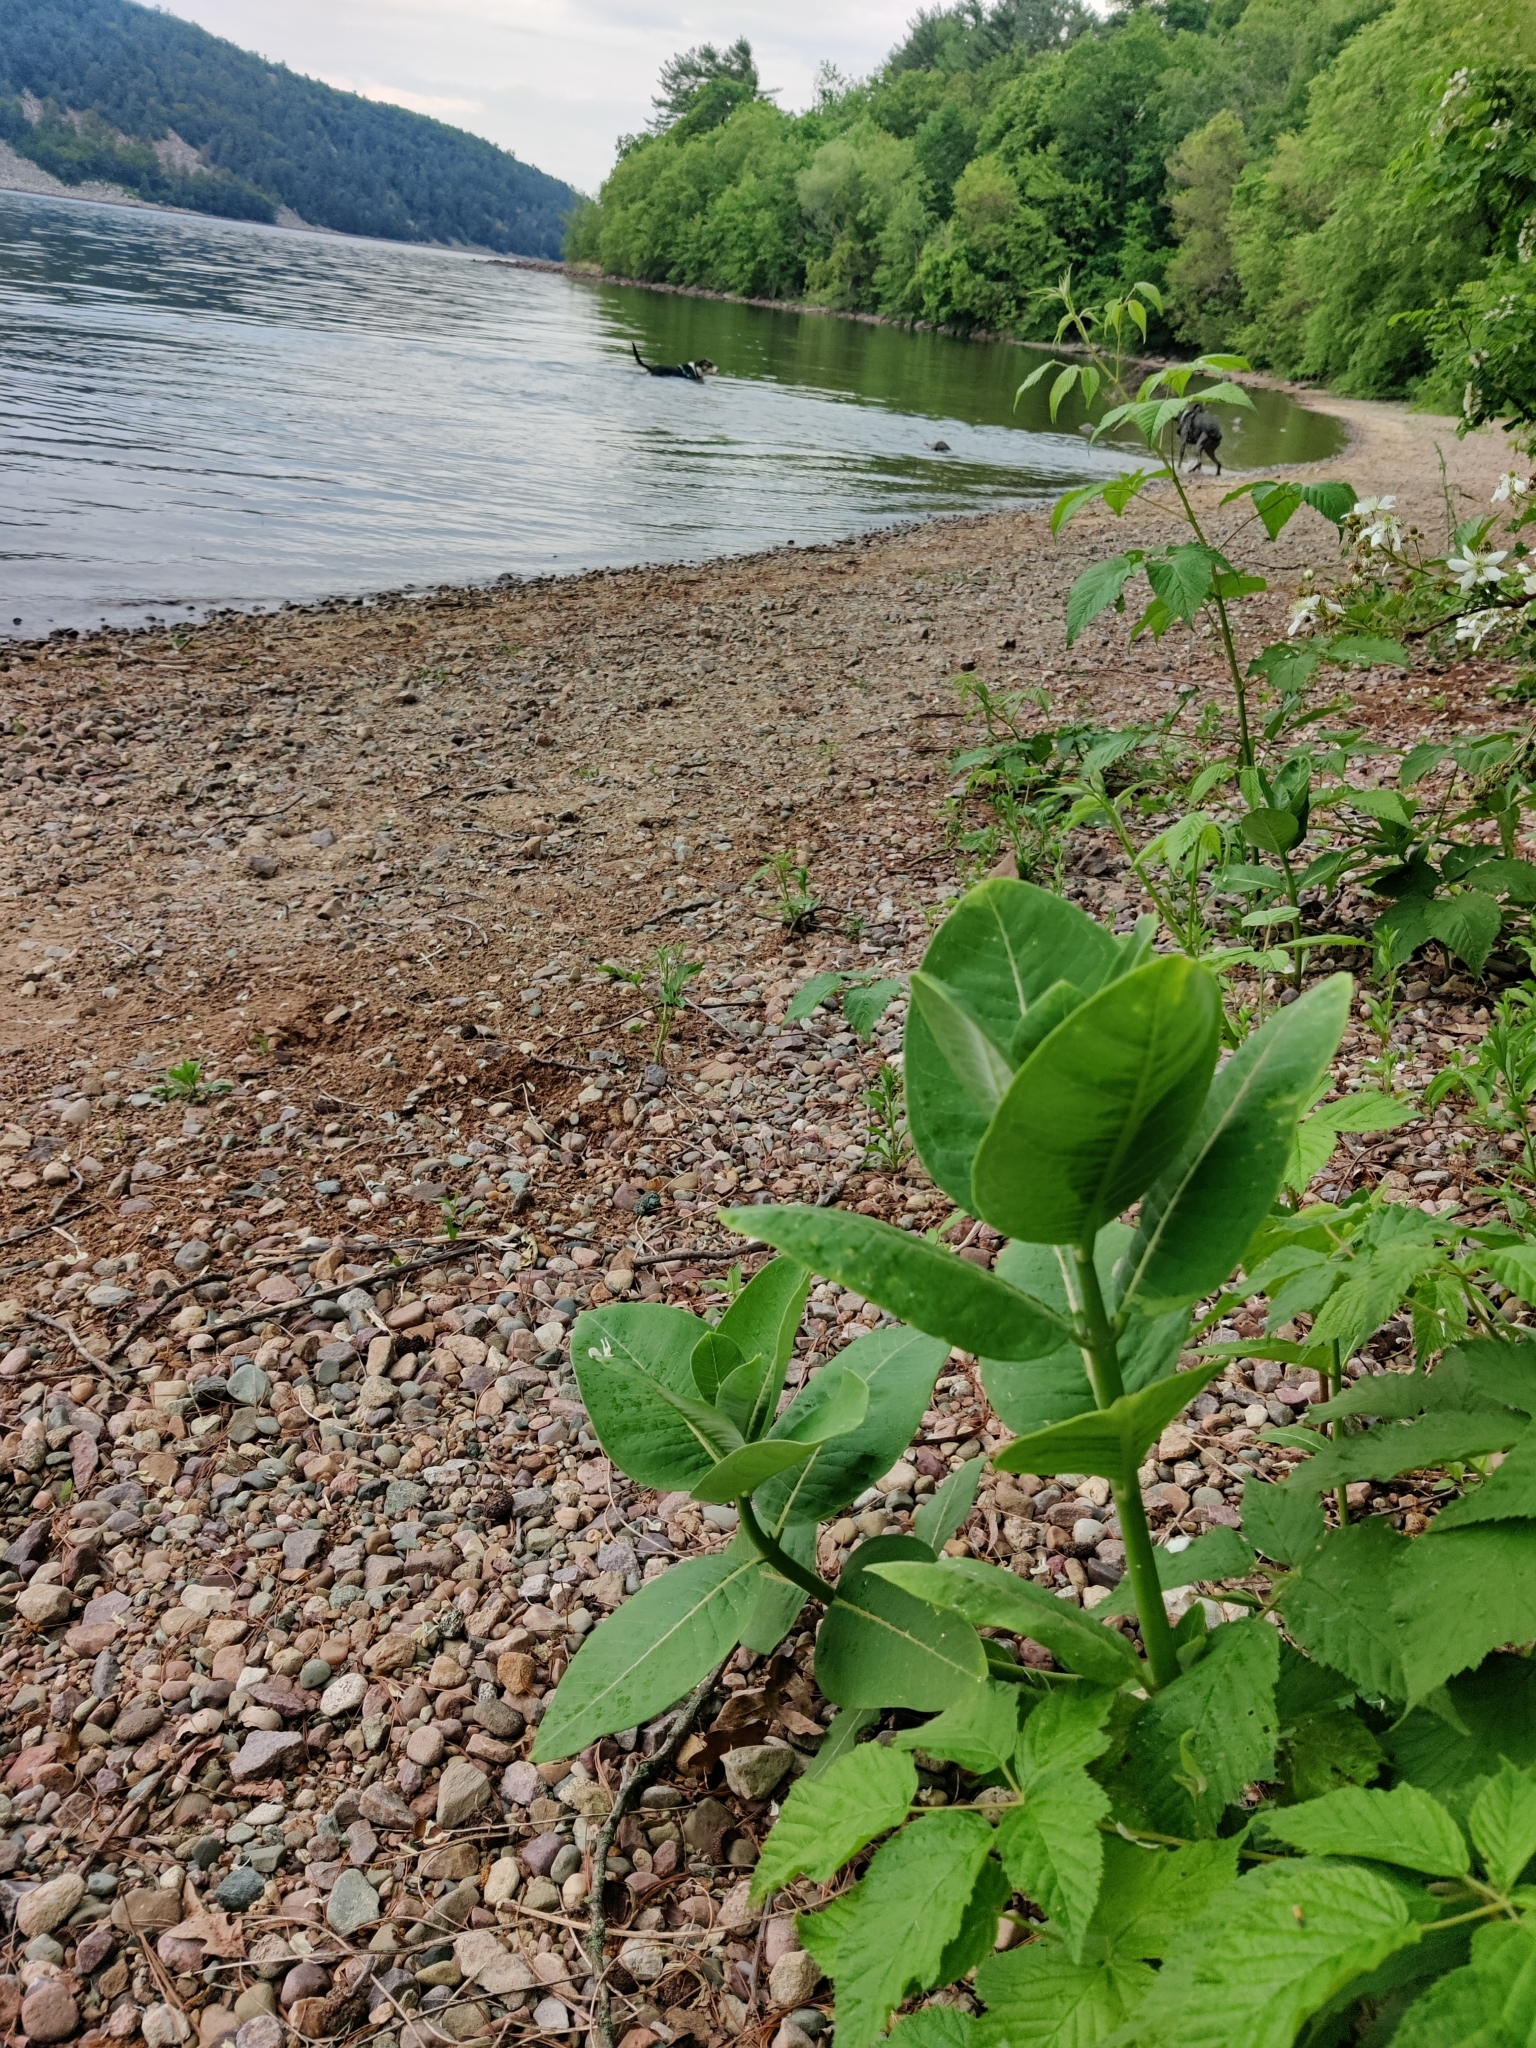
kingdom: Plantae
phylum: Tracheophyta
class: Magnoliopsida
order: Gentianales
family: Apocynaceae
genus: Asclepias
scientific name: Asclepias syriaca
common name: Common milkweed
